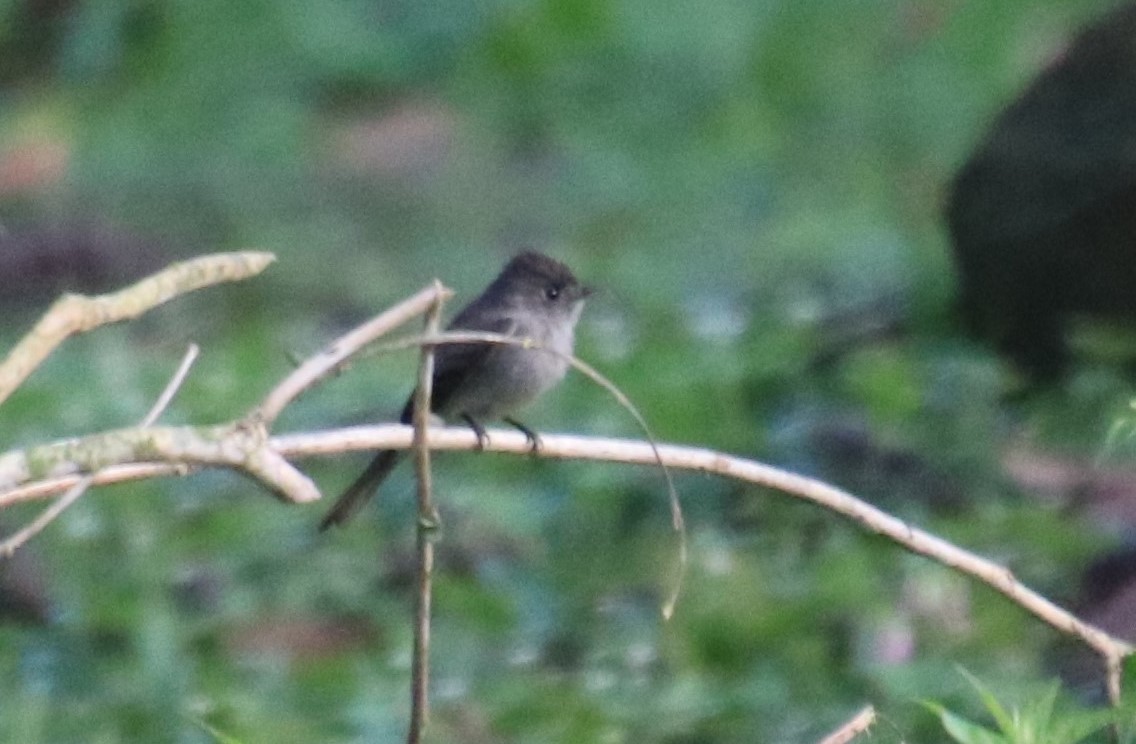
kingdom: Animalia
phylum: Chordata
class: Aves
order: Passeriformes
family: Tyrannidae
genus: Contopus
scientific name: Contopus cinereus
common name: Tropical pewee
